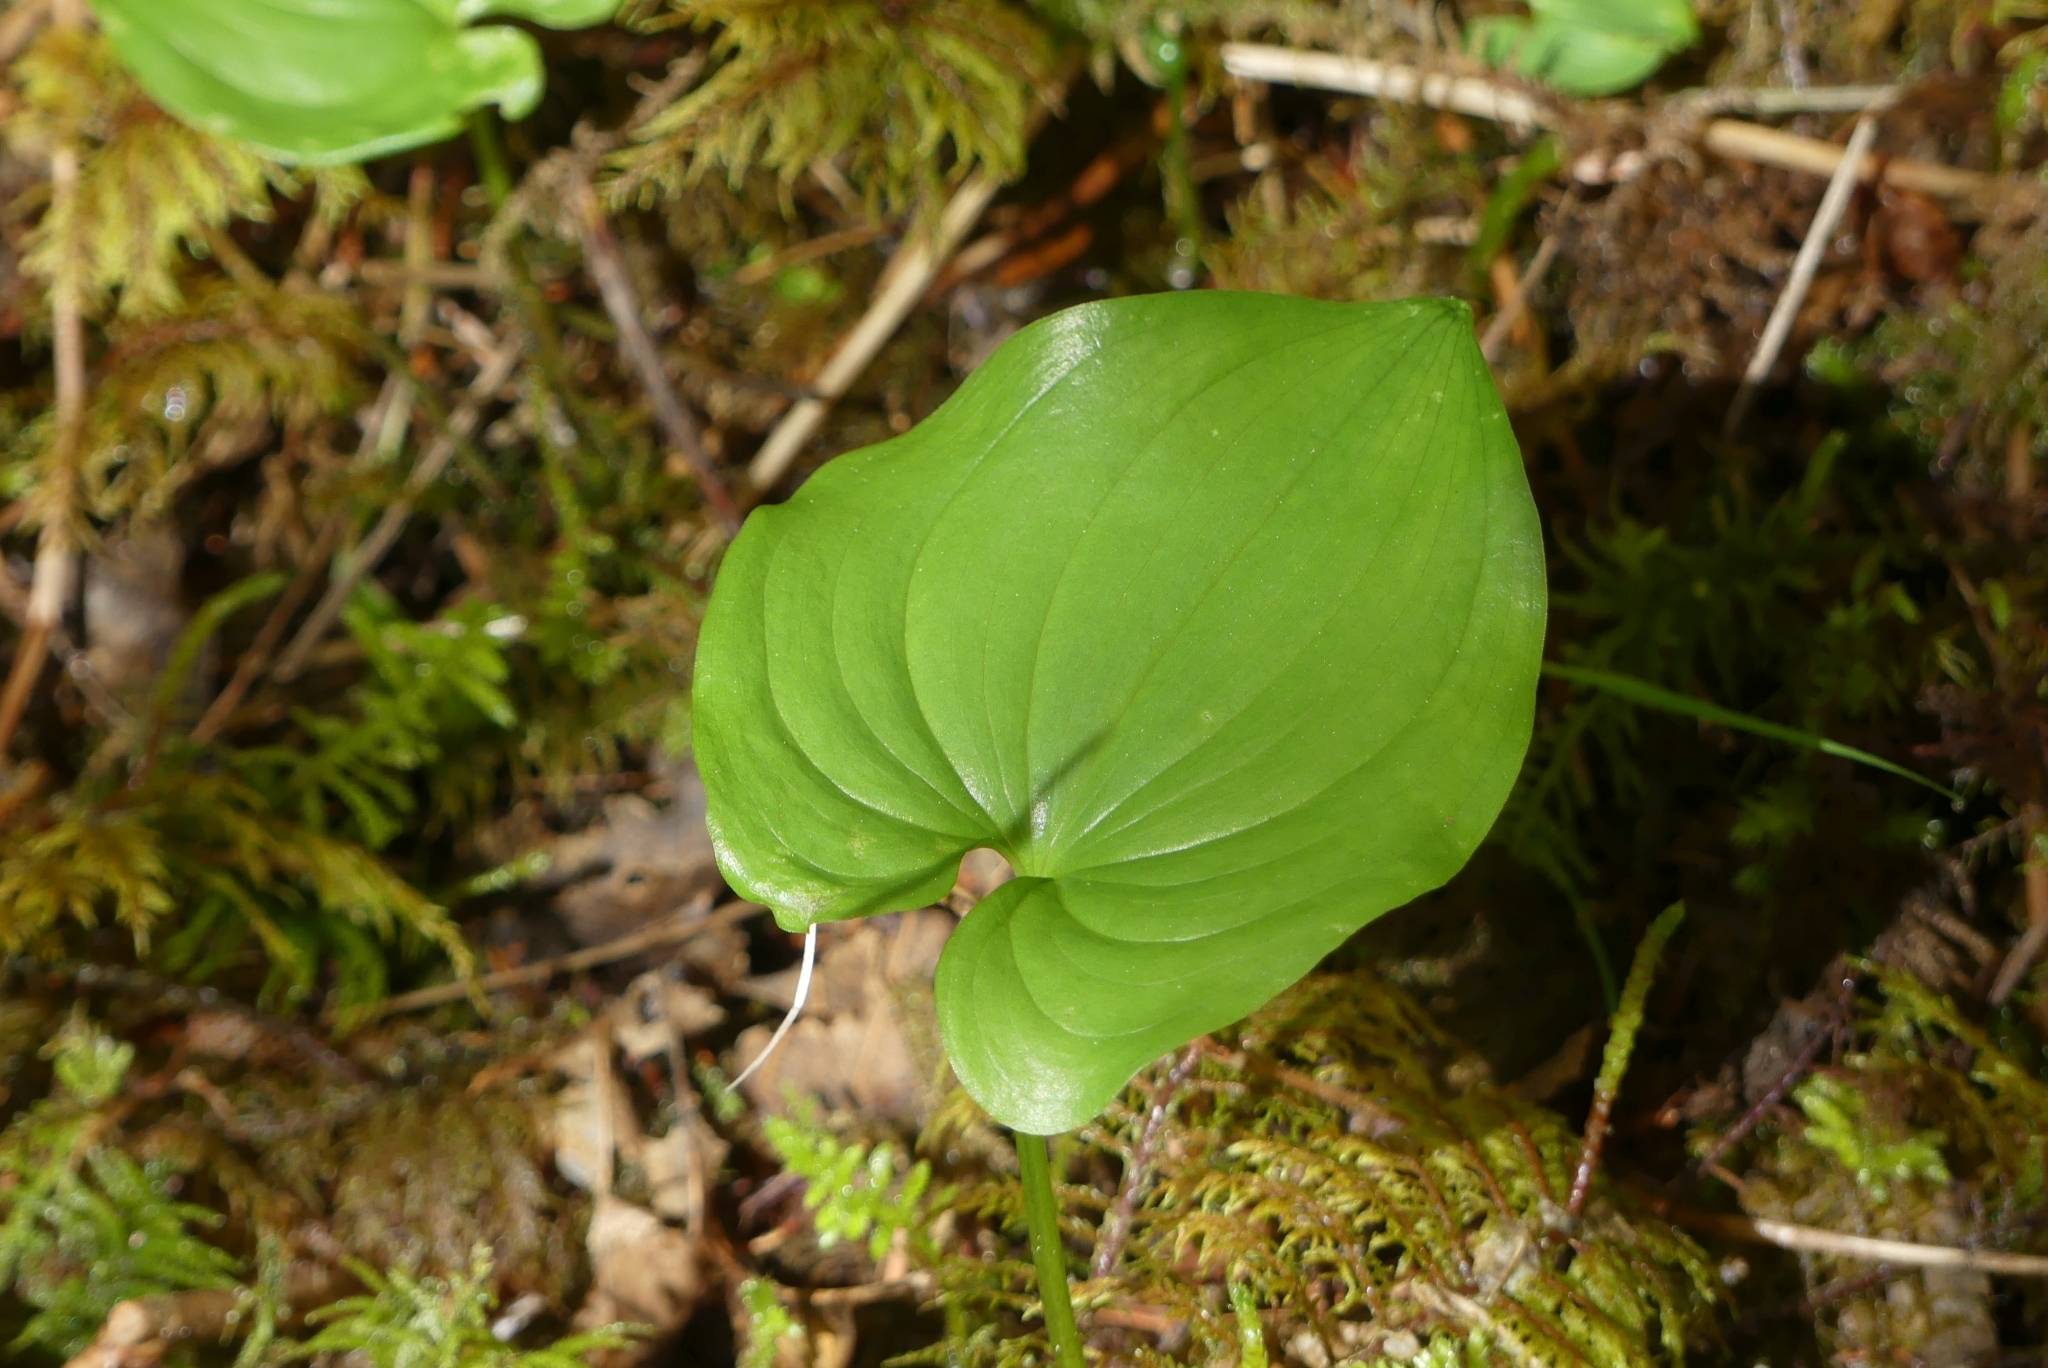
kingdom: Plantae
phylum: Tracheophyta
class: Liliopsida
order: Asparagales
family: Asparagaceae
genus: Maianthemum
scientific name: Maianthemum dilatatum
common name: False lily-of-the-valley
